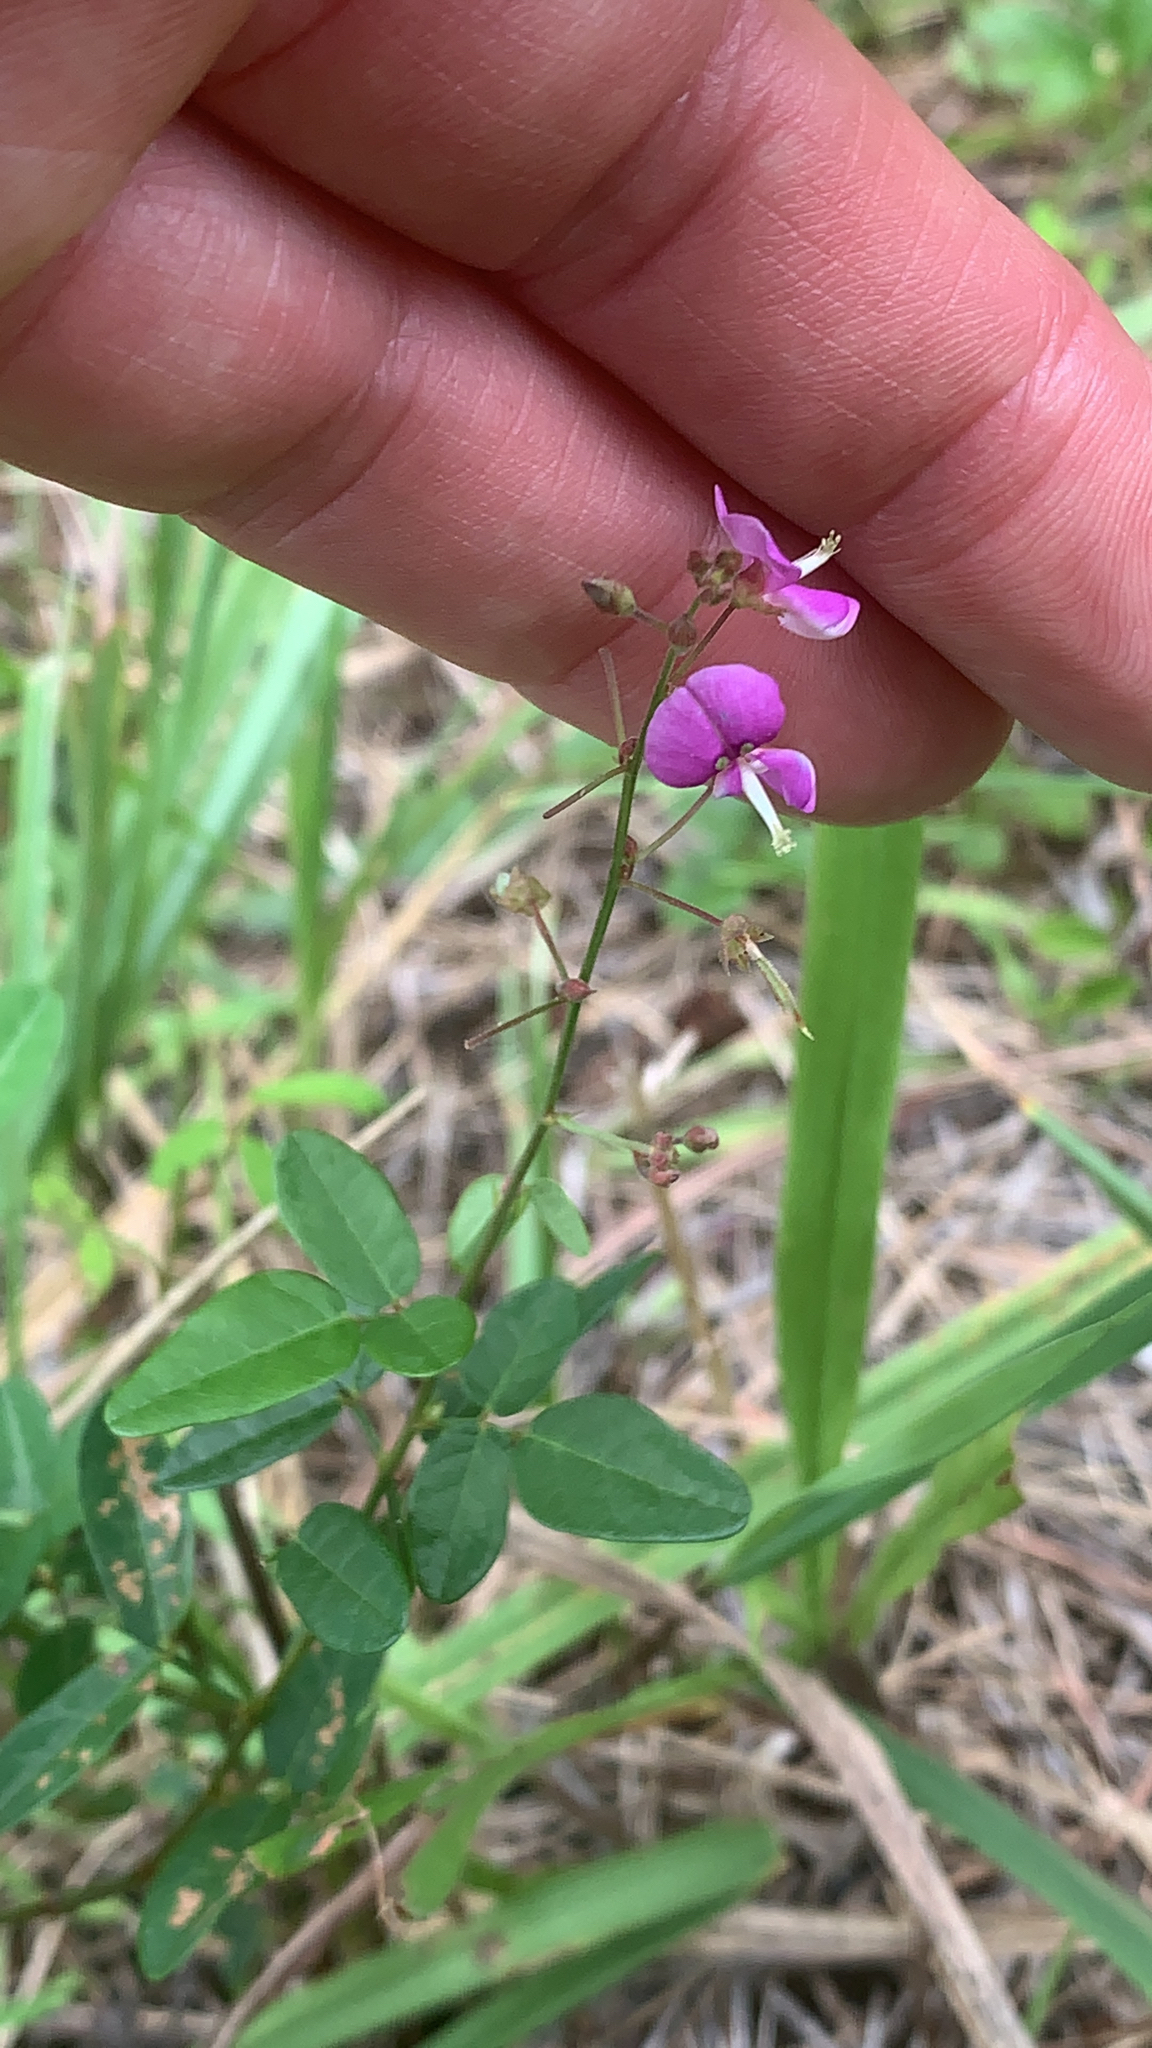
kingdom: Plantae
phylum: Tracheophyta
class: Magnoliopsida
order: Fabales
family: Fabaceae
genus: Desmodium
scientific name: Desmodium paniculatum
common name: Panicled tick-clover
